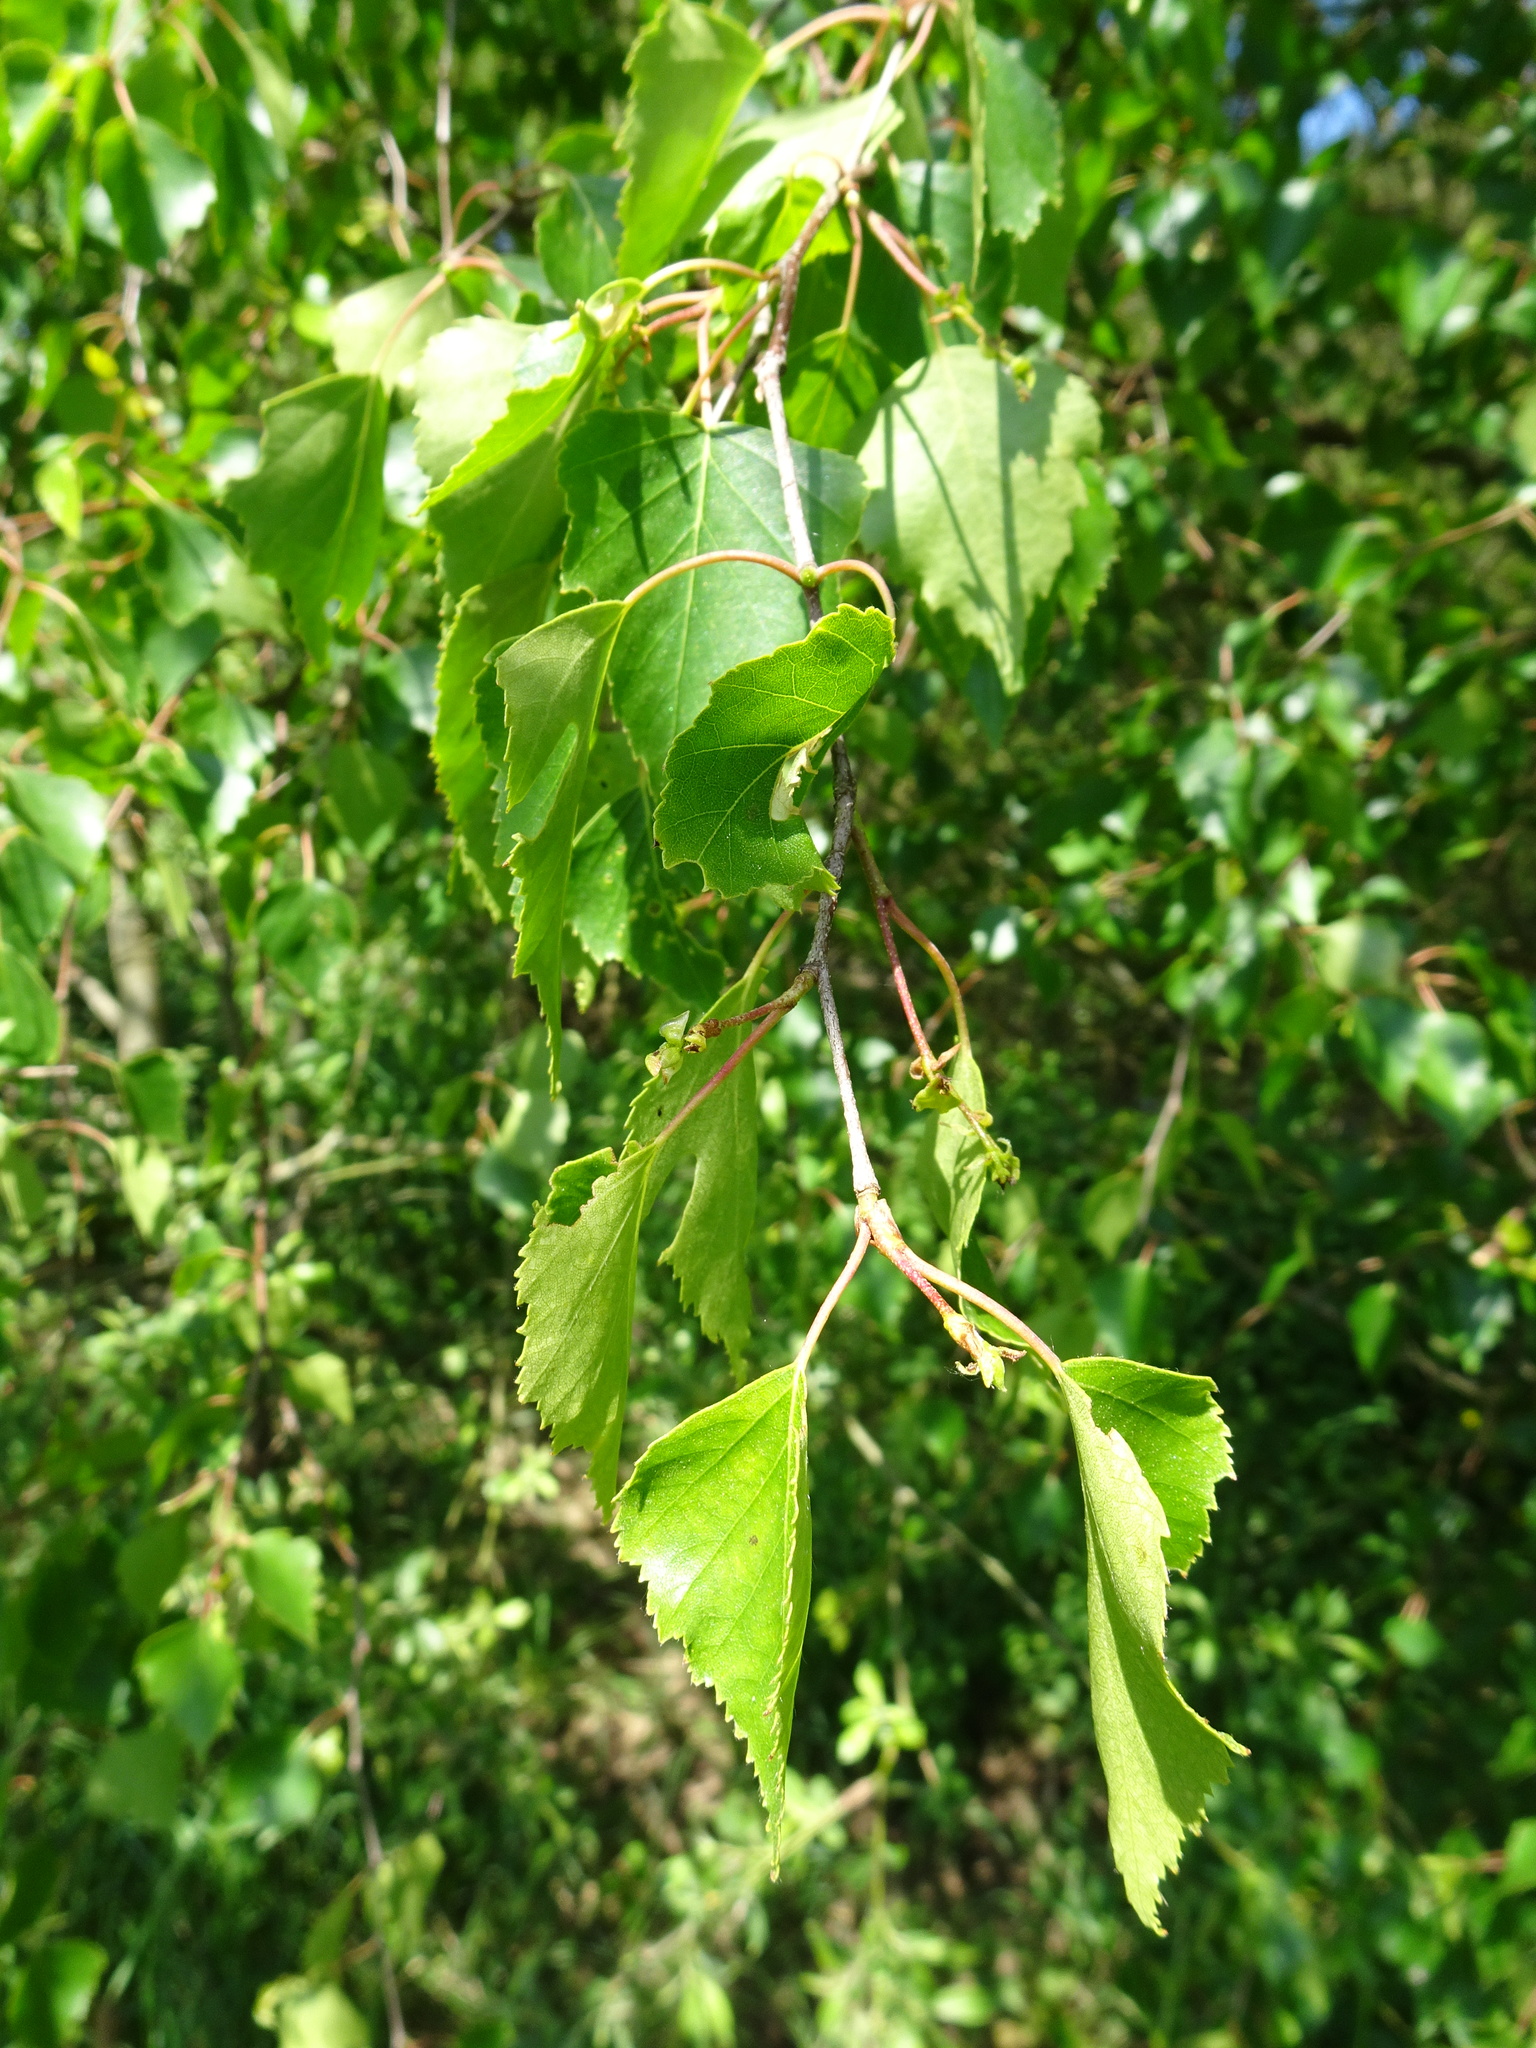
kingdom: Plantae
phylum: Tracheophyta
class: Magnoliopsida
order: Fagales
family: Betulaceae
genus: Betula
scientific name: Betula pendula
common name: Silver birch
